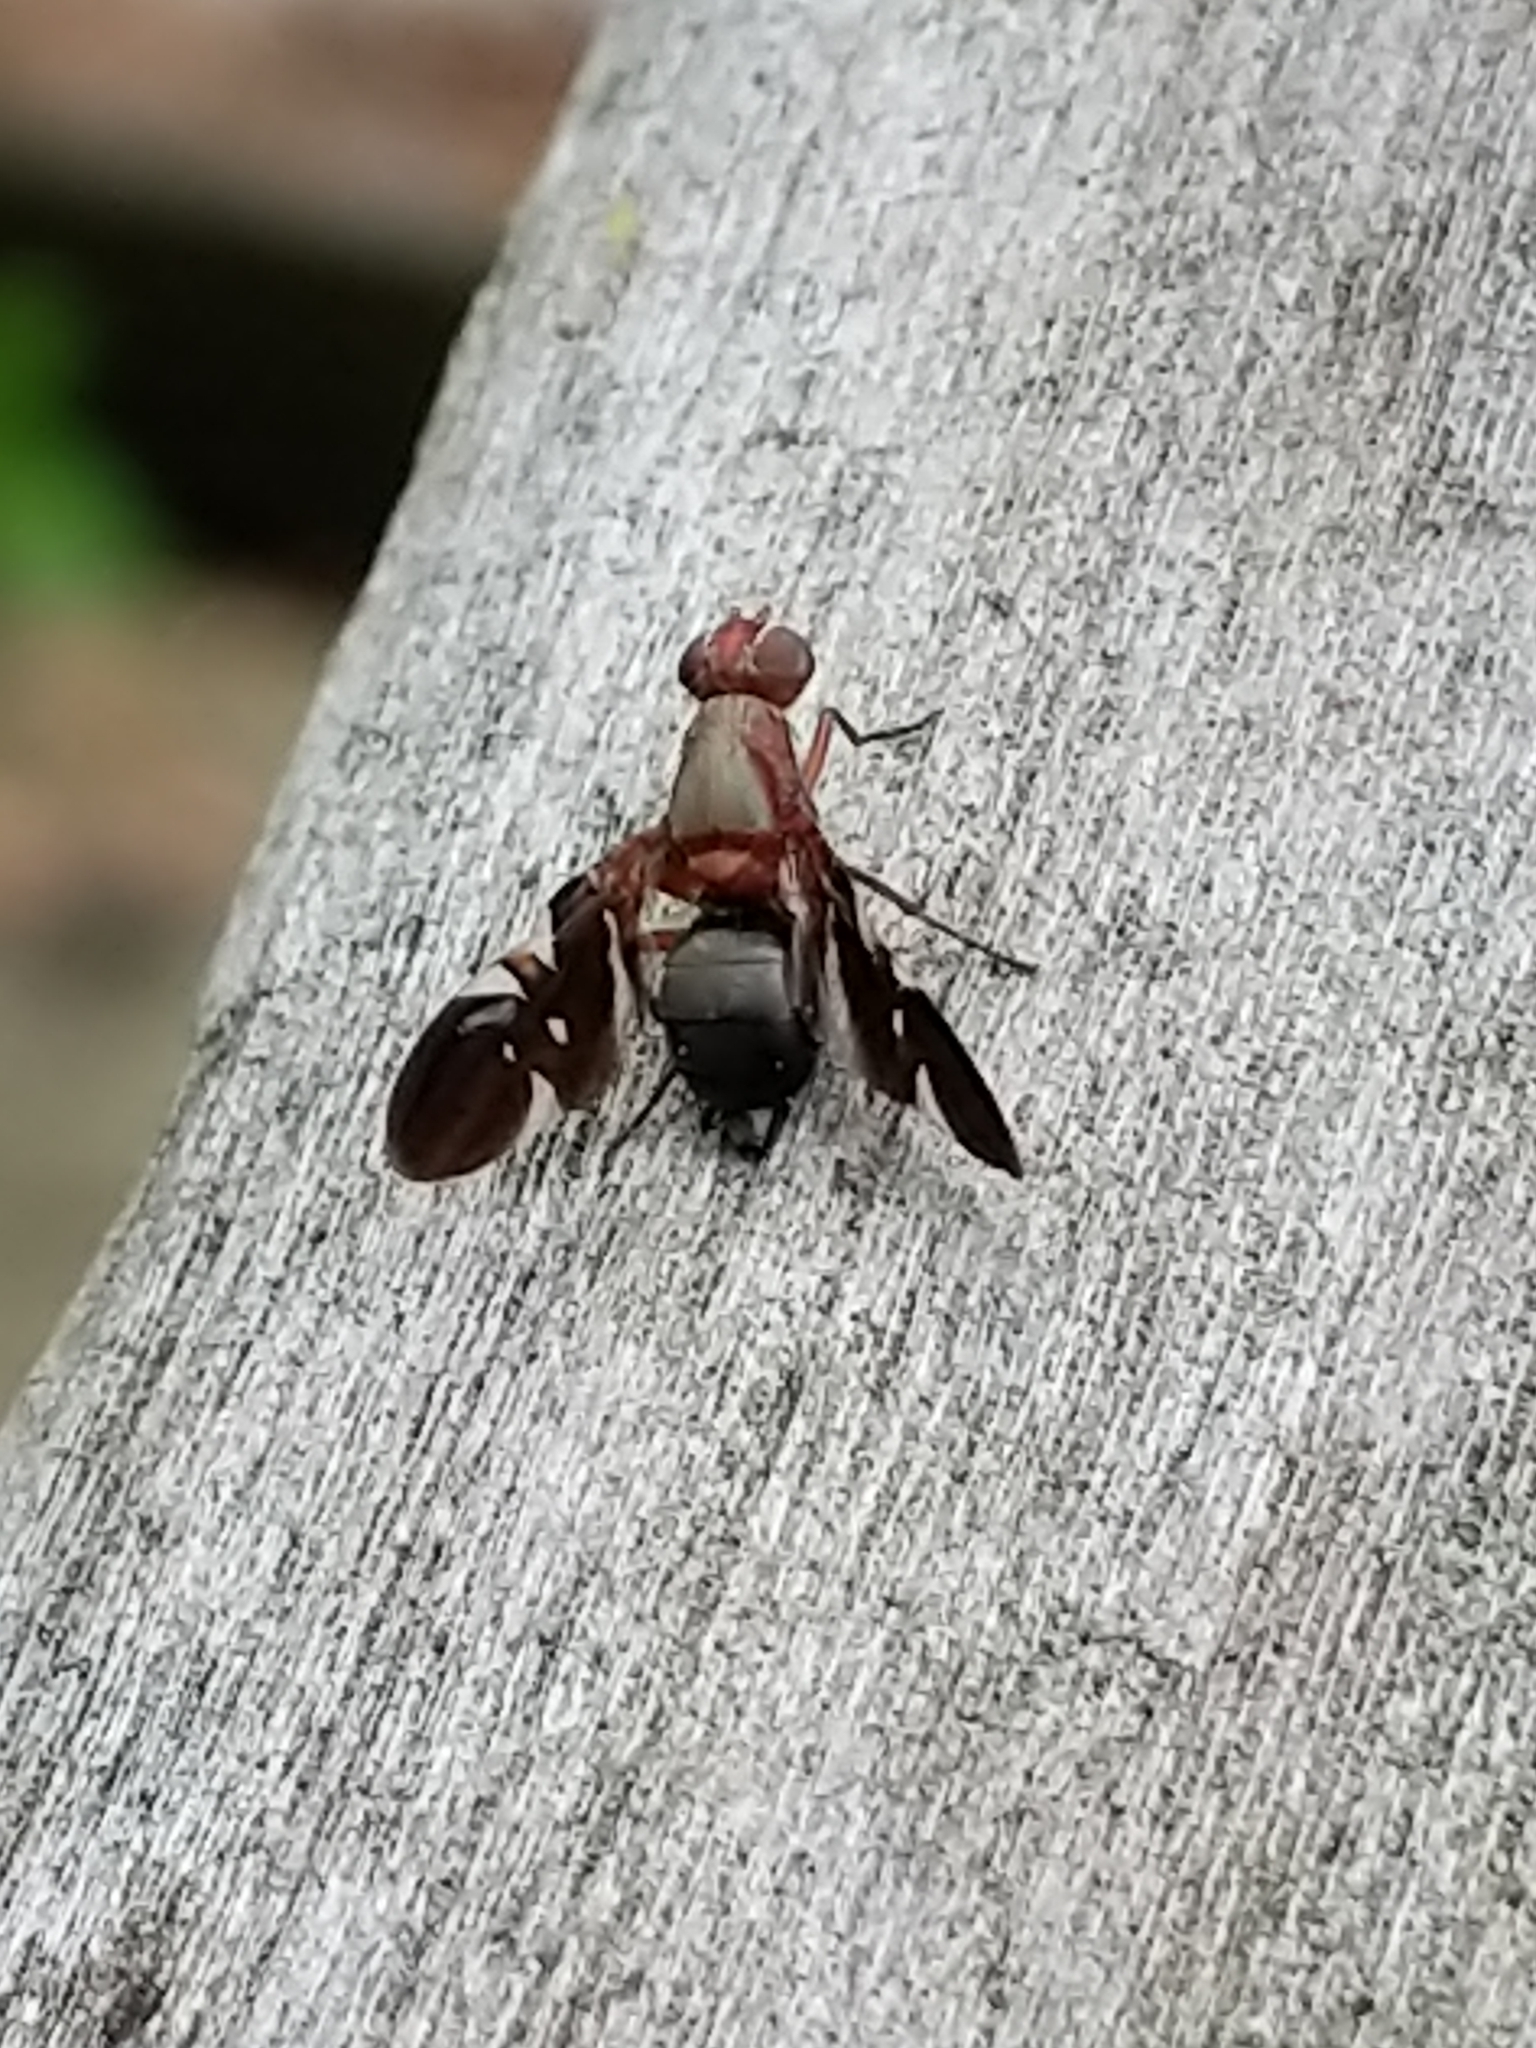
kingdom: Animalia
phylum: Arthropoda
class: Insecta
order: Diptera
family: Ulidiidae
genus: Delphinia
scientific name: Delphinia picta
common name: Common picture-winged fly
